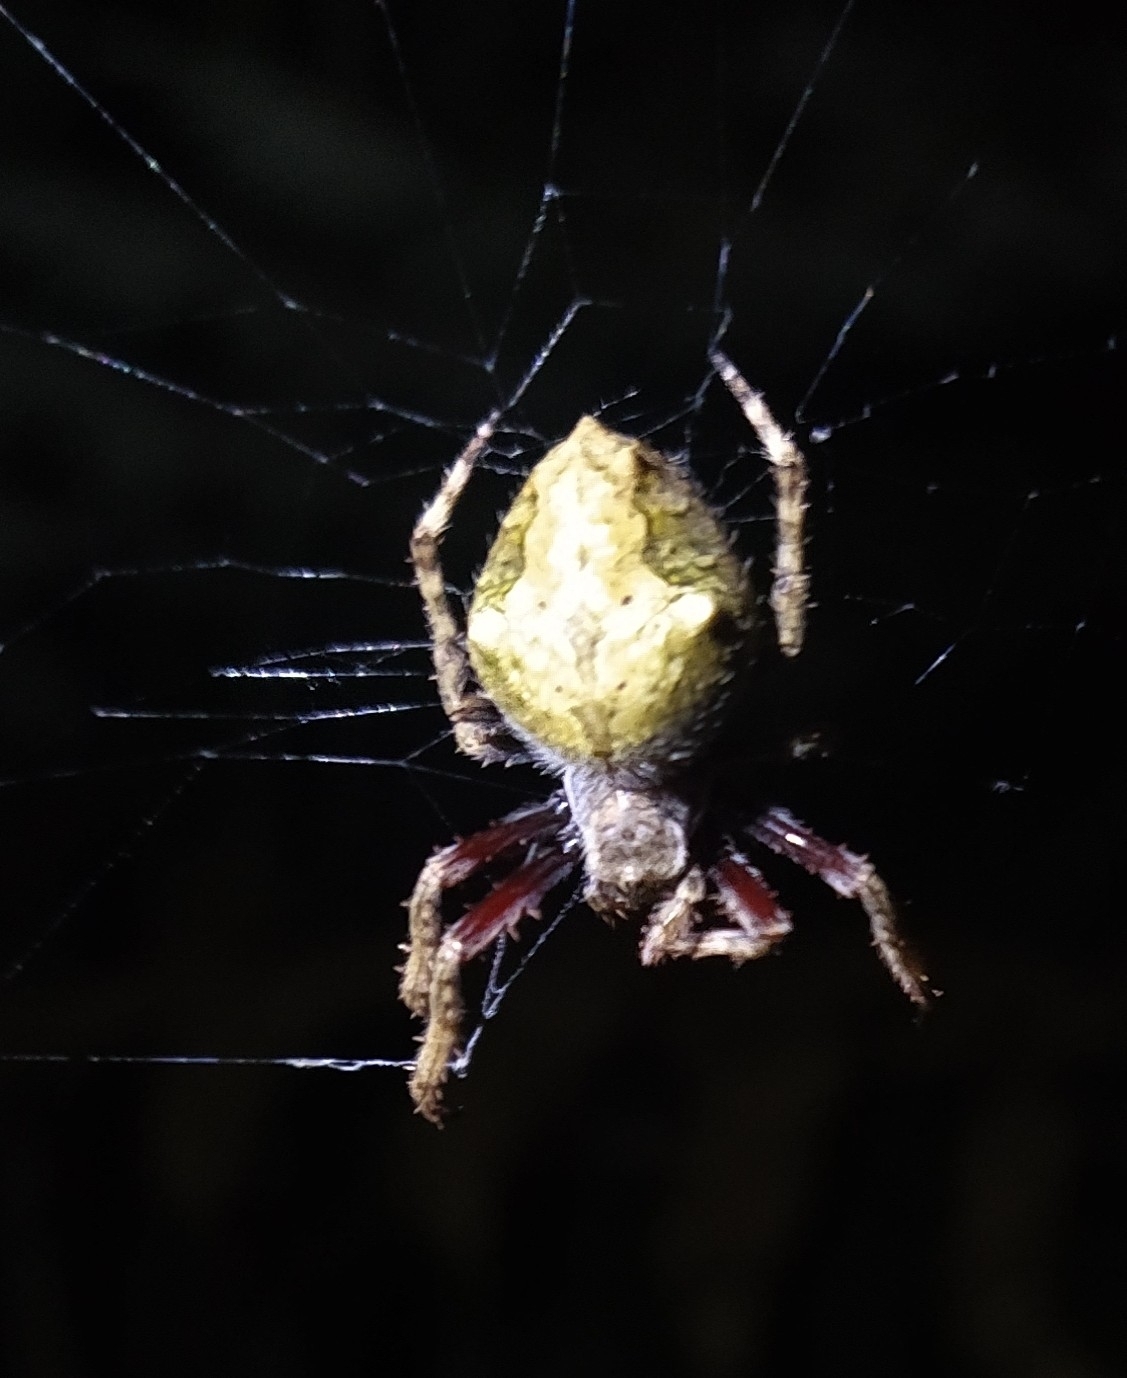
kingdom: Animalia
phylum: Arthropoda
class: Arachnida
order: Araneae
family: Araneidae
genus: Eriophora
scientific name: Eriophora pustulosa
